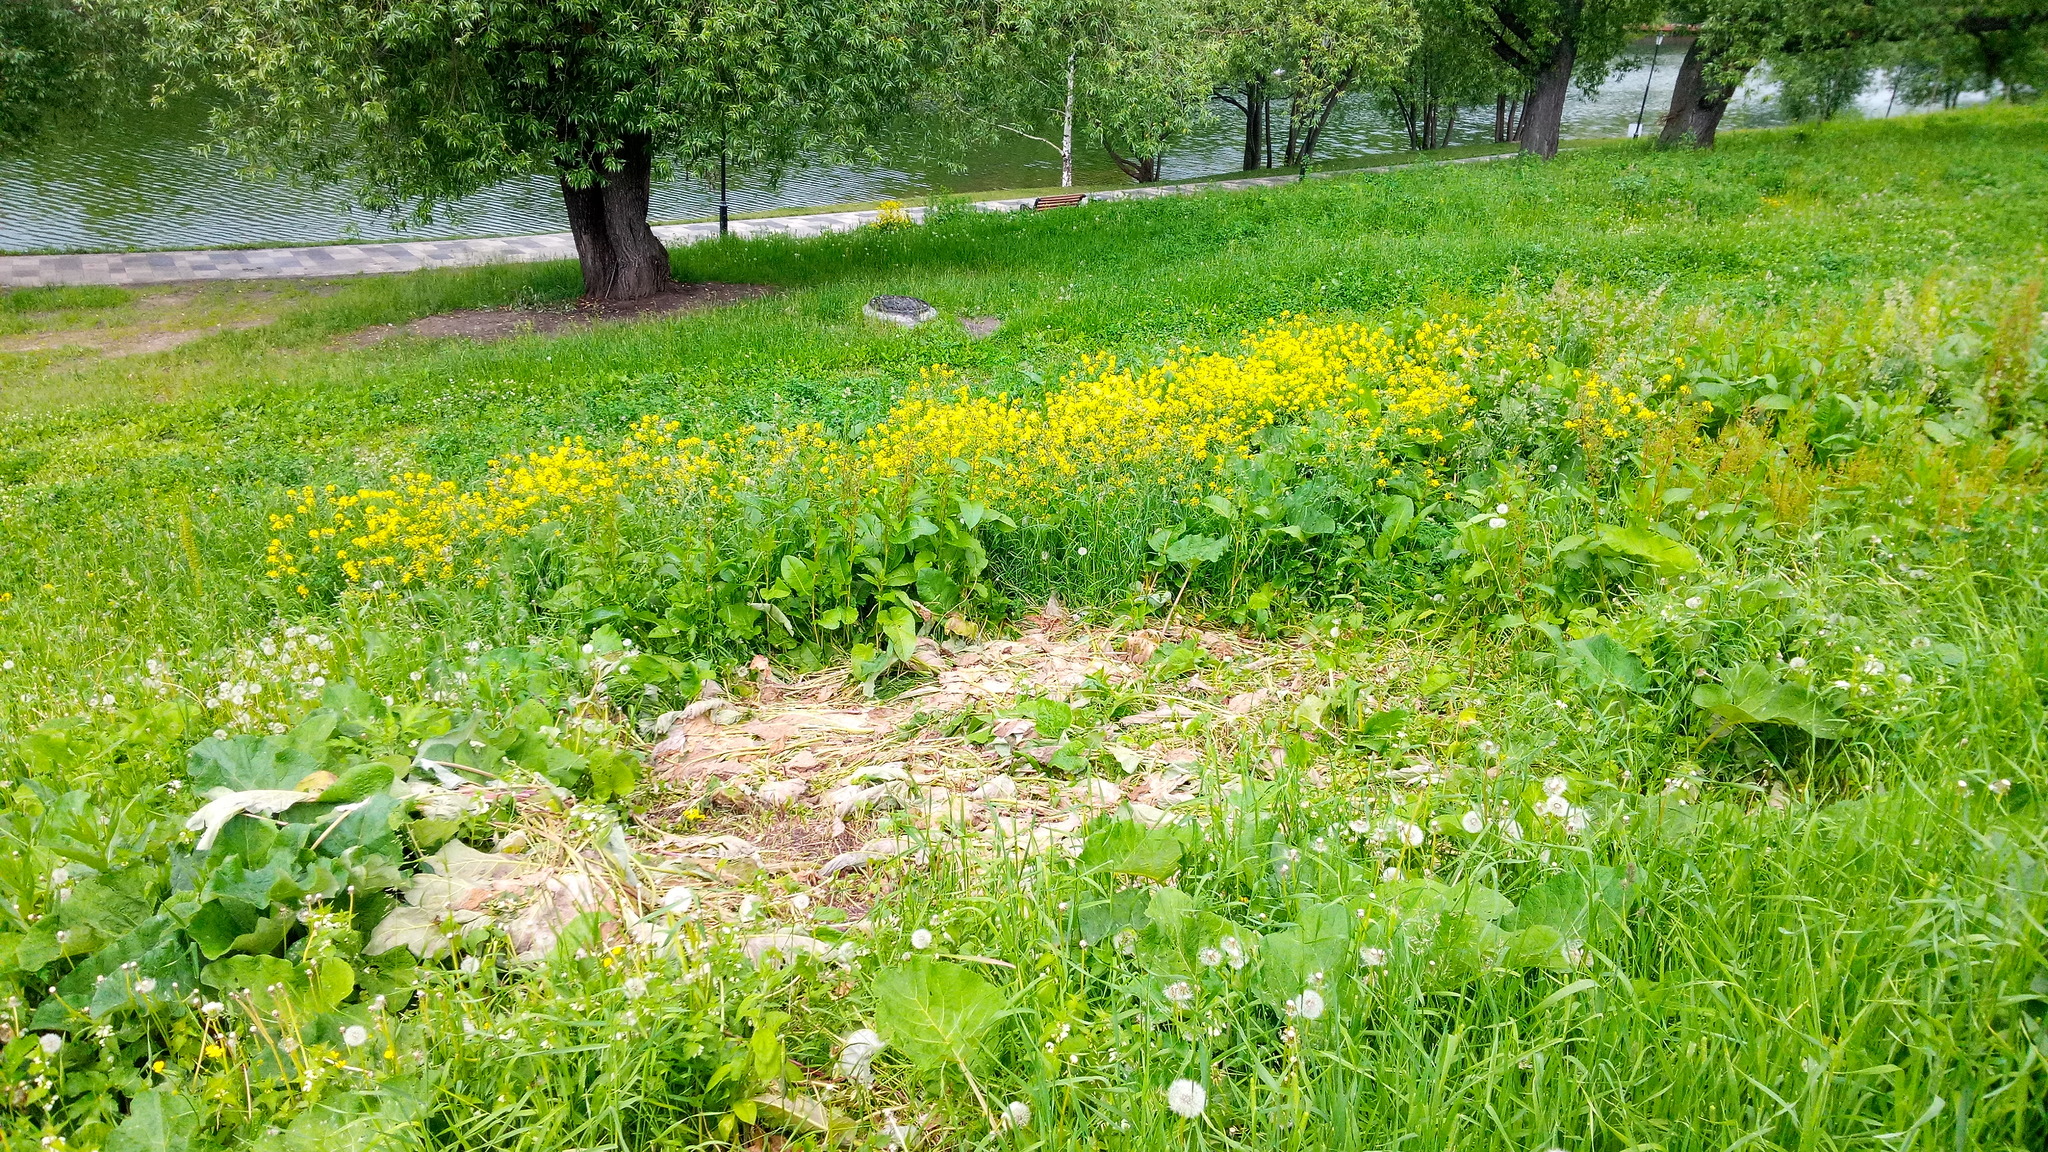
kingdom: Plantae
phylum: Tracheophyta
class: Magnoliopsida
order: Brassicales
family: Brassicaceae
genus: Bunias
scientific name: Bunias orientalis
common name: Warty-cabbage
